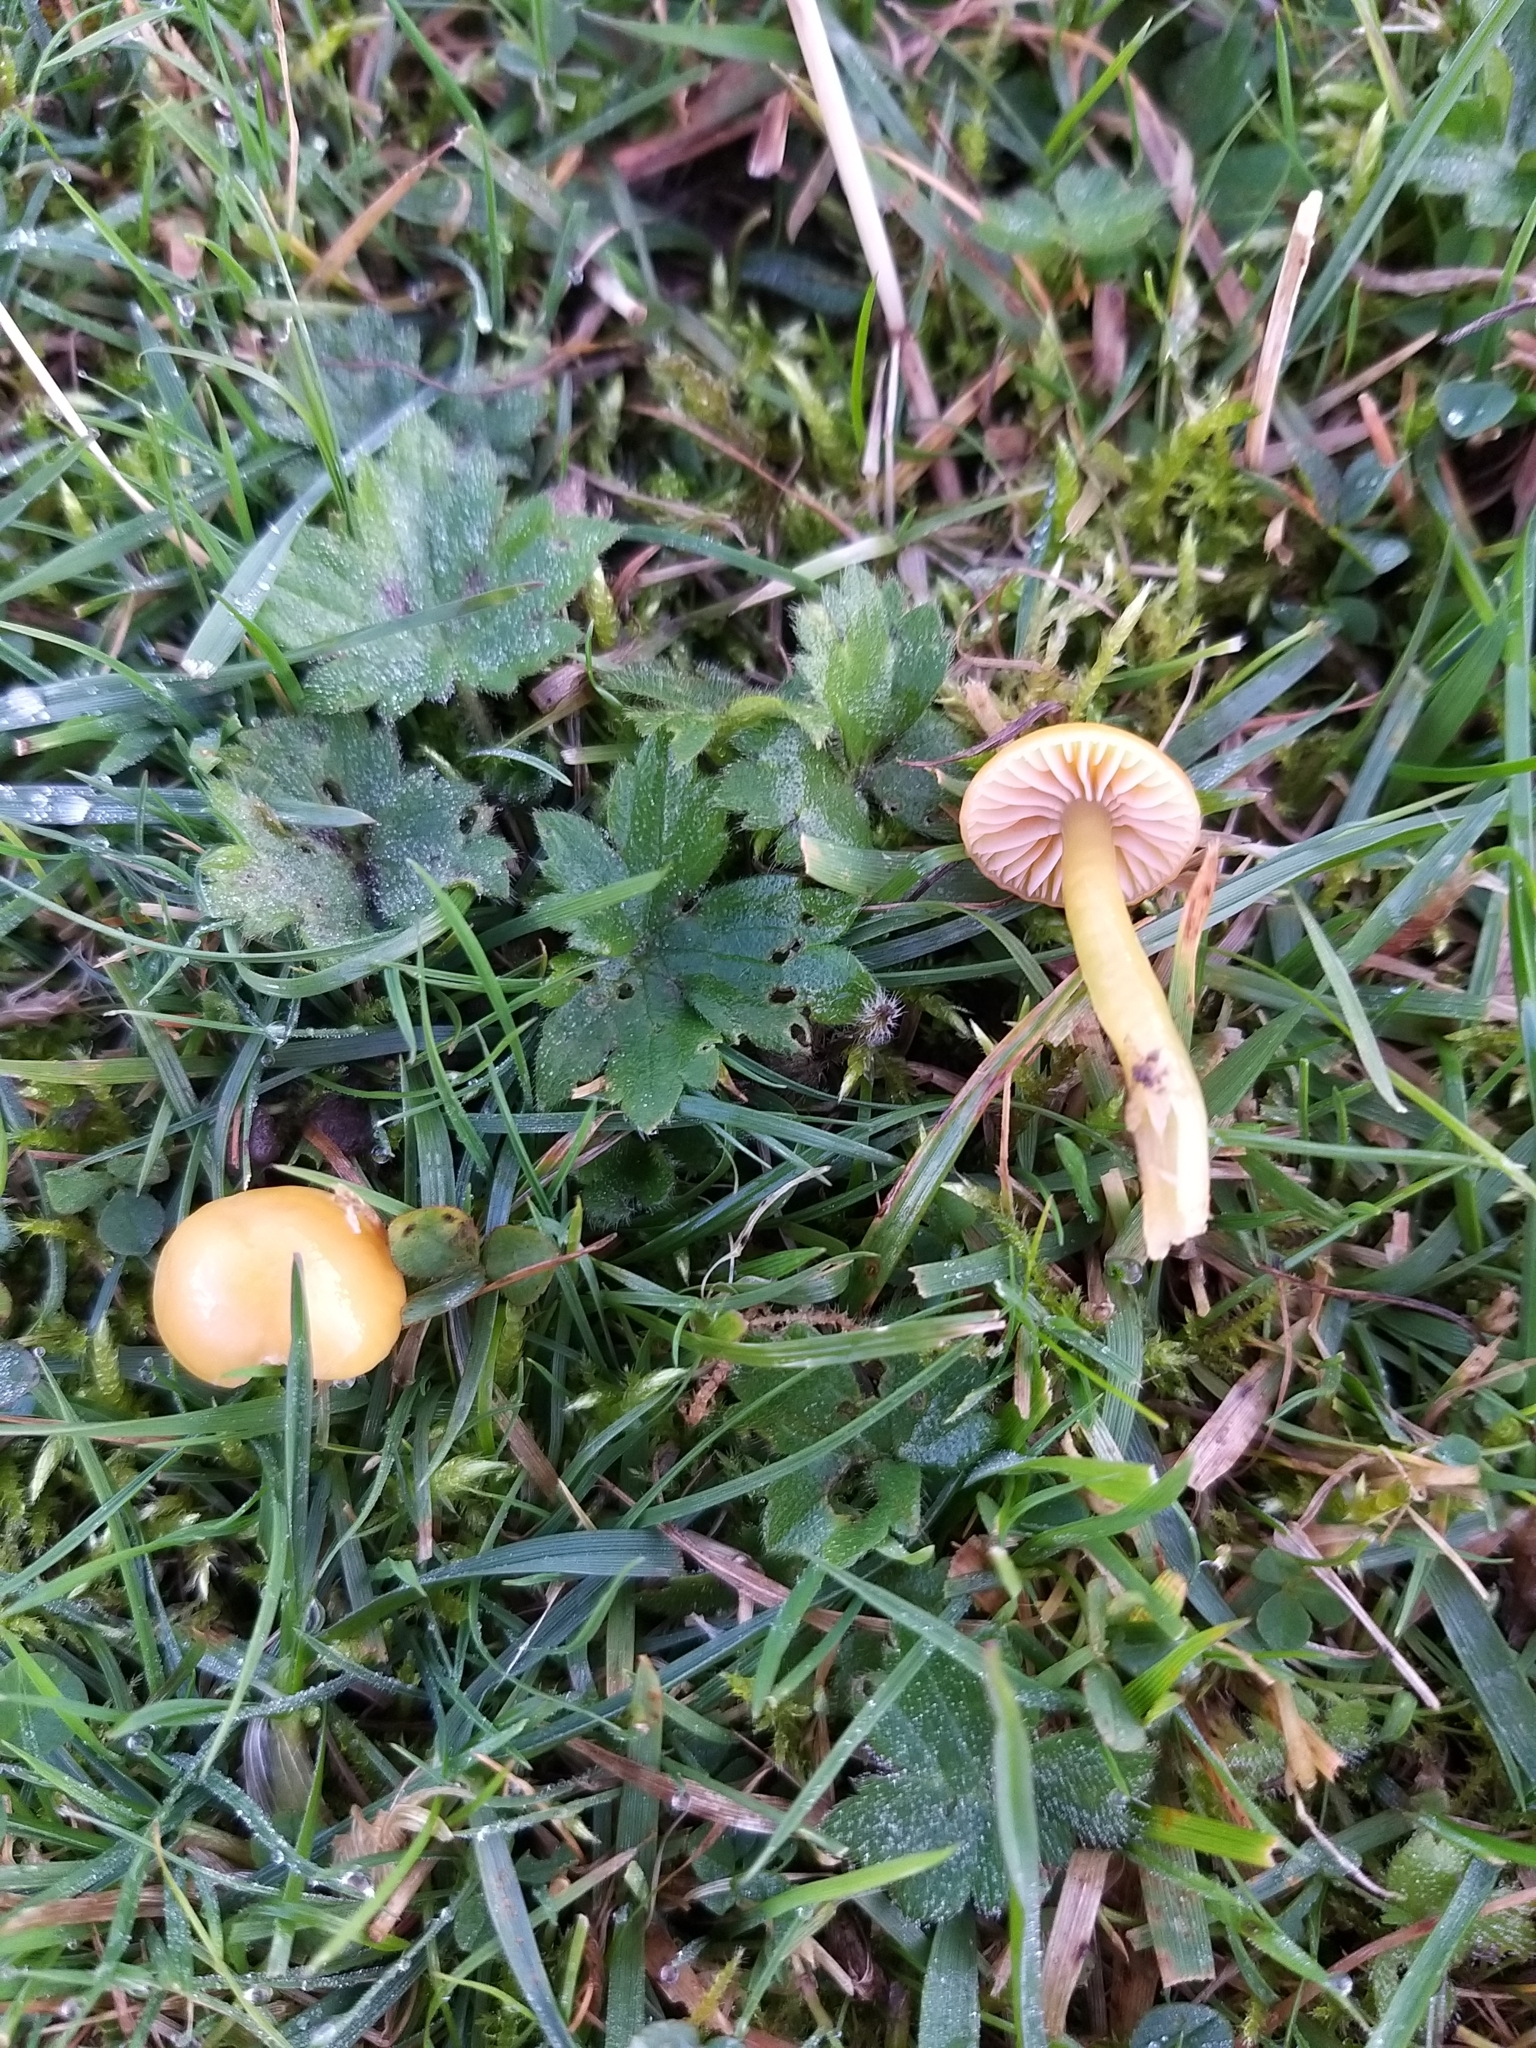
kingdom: Fungi
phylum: Basidiomycota
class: Agaricomycetes
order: Agaricales
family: Hygrophoraceae
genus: Gliophorus
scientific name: Gliophorus psittacinus
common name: Parrot wax-cap
